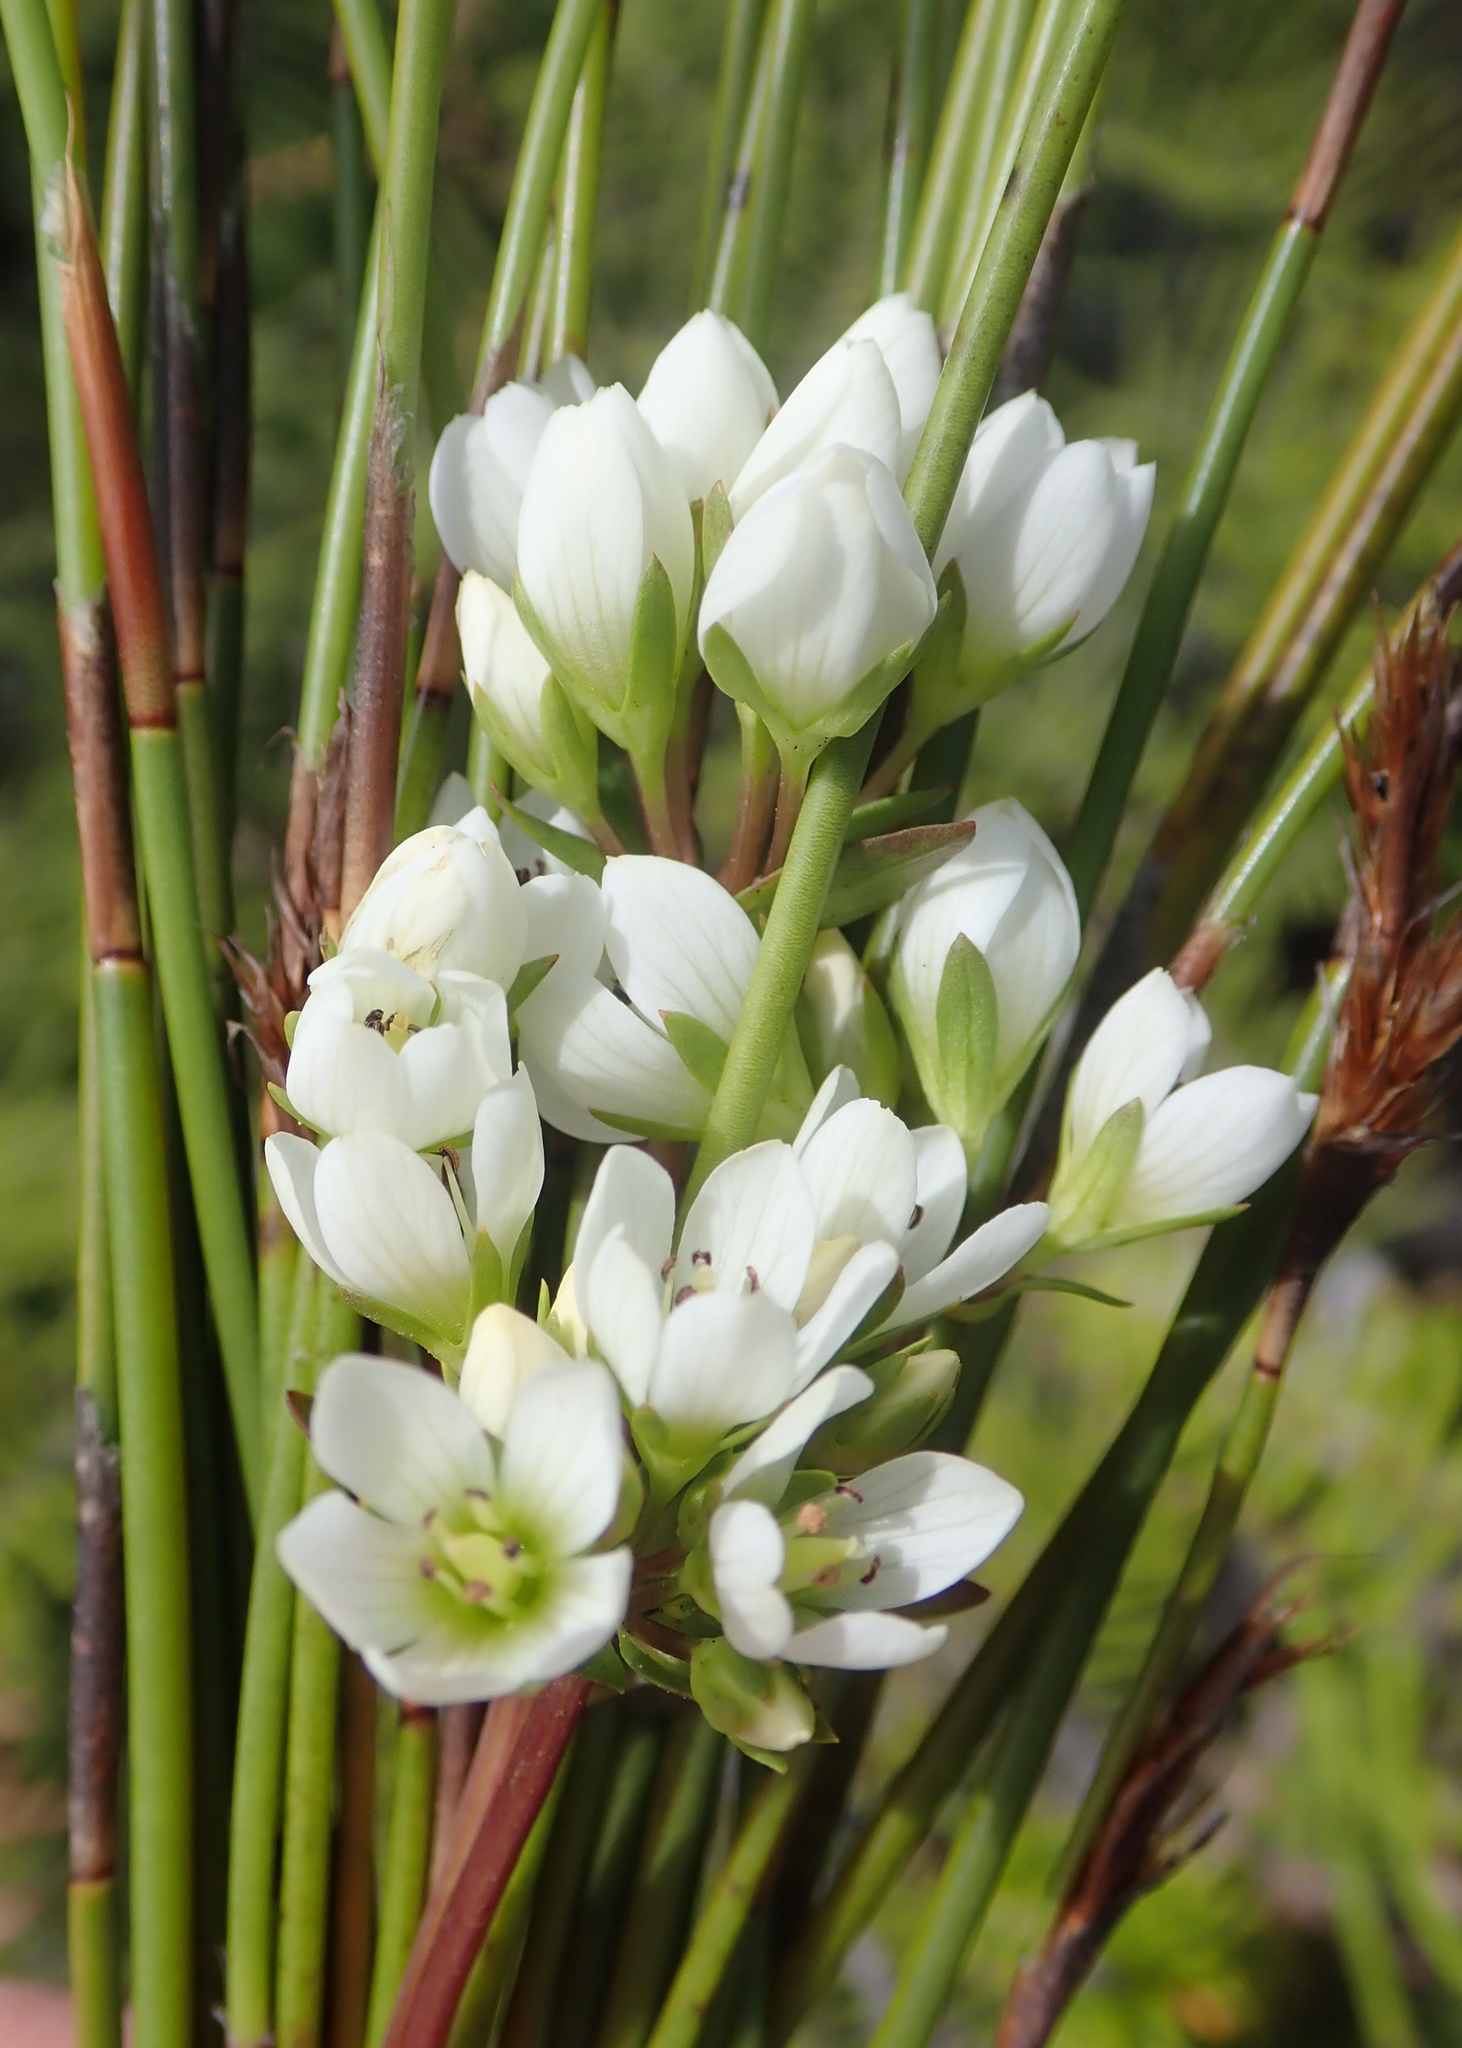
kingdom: Plantae
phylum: Tracheophyta
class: Magnoliopsida
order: Gentianales
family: Gentianaceae
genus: Gentianella
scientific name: Gentianella chathamica
